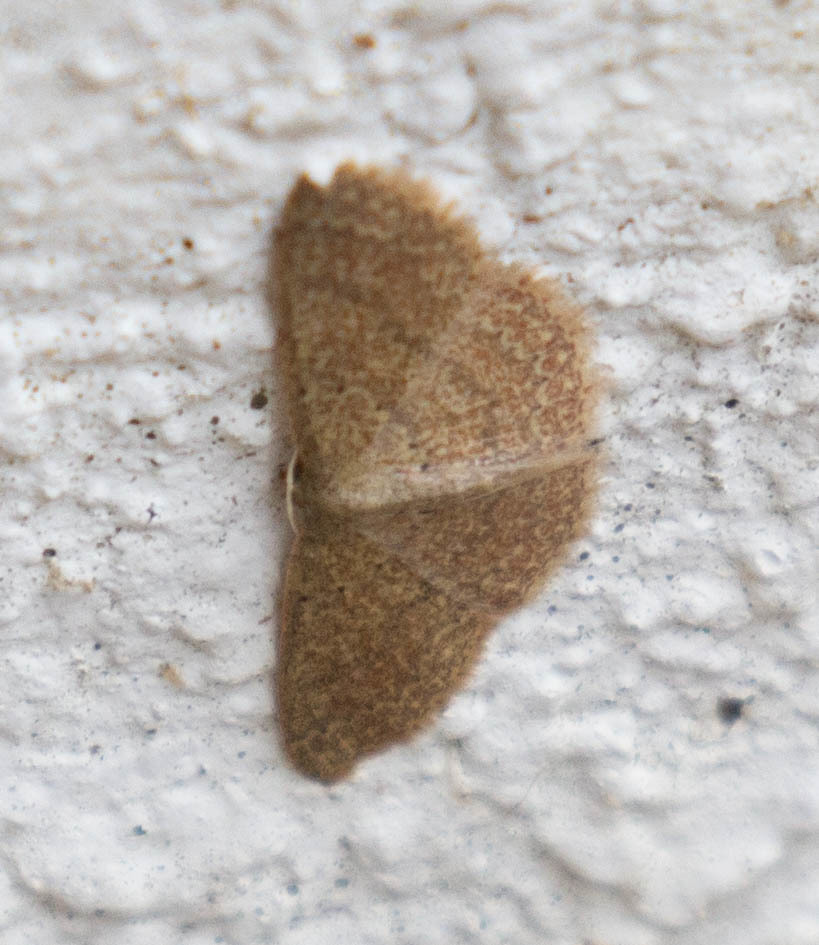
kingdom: Animalia
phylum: Arthropoda
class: Insecta
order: Lepidoptera
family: Geometridae
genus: Pleuroprucha
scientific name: Pleuroprucha insulsaria
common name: Common tan wave
